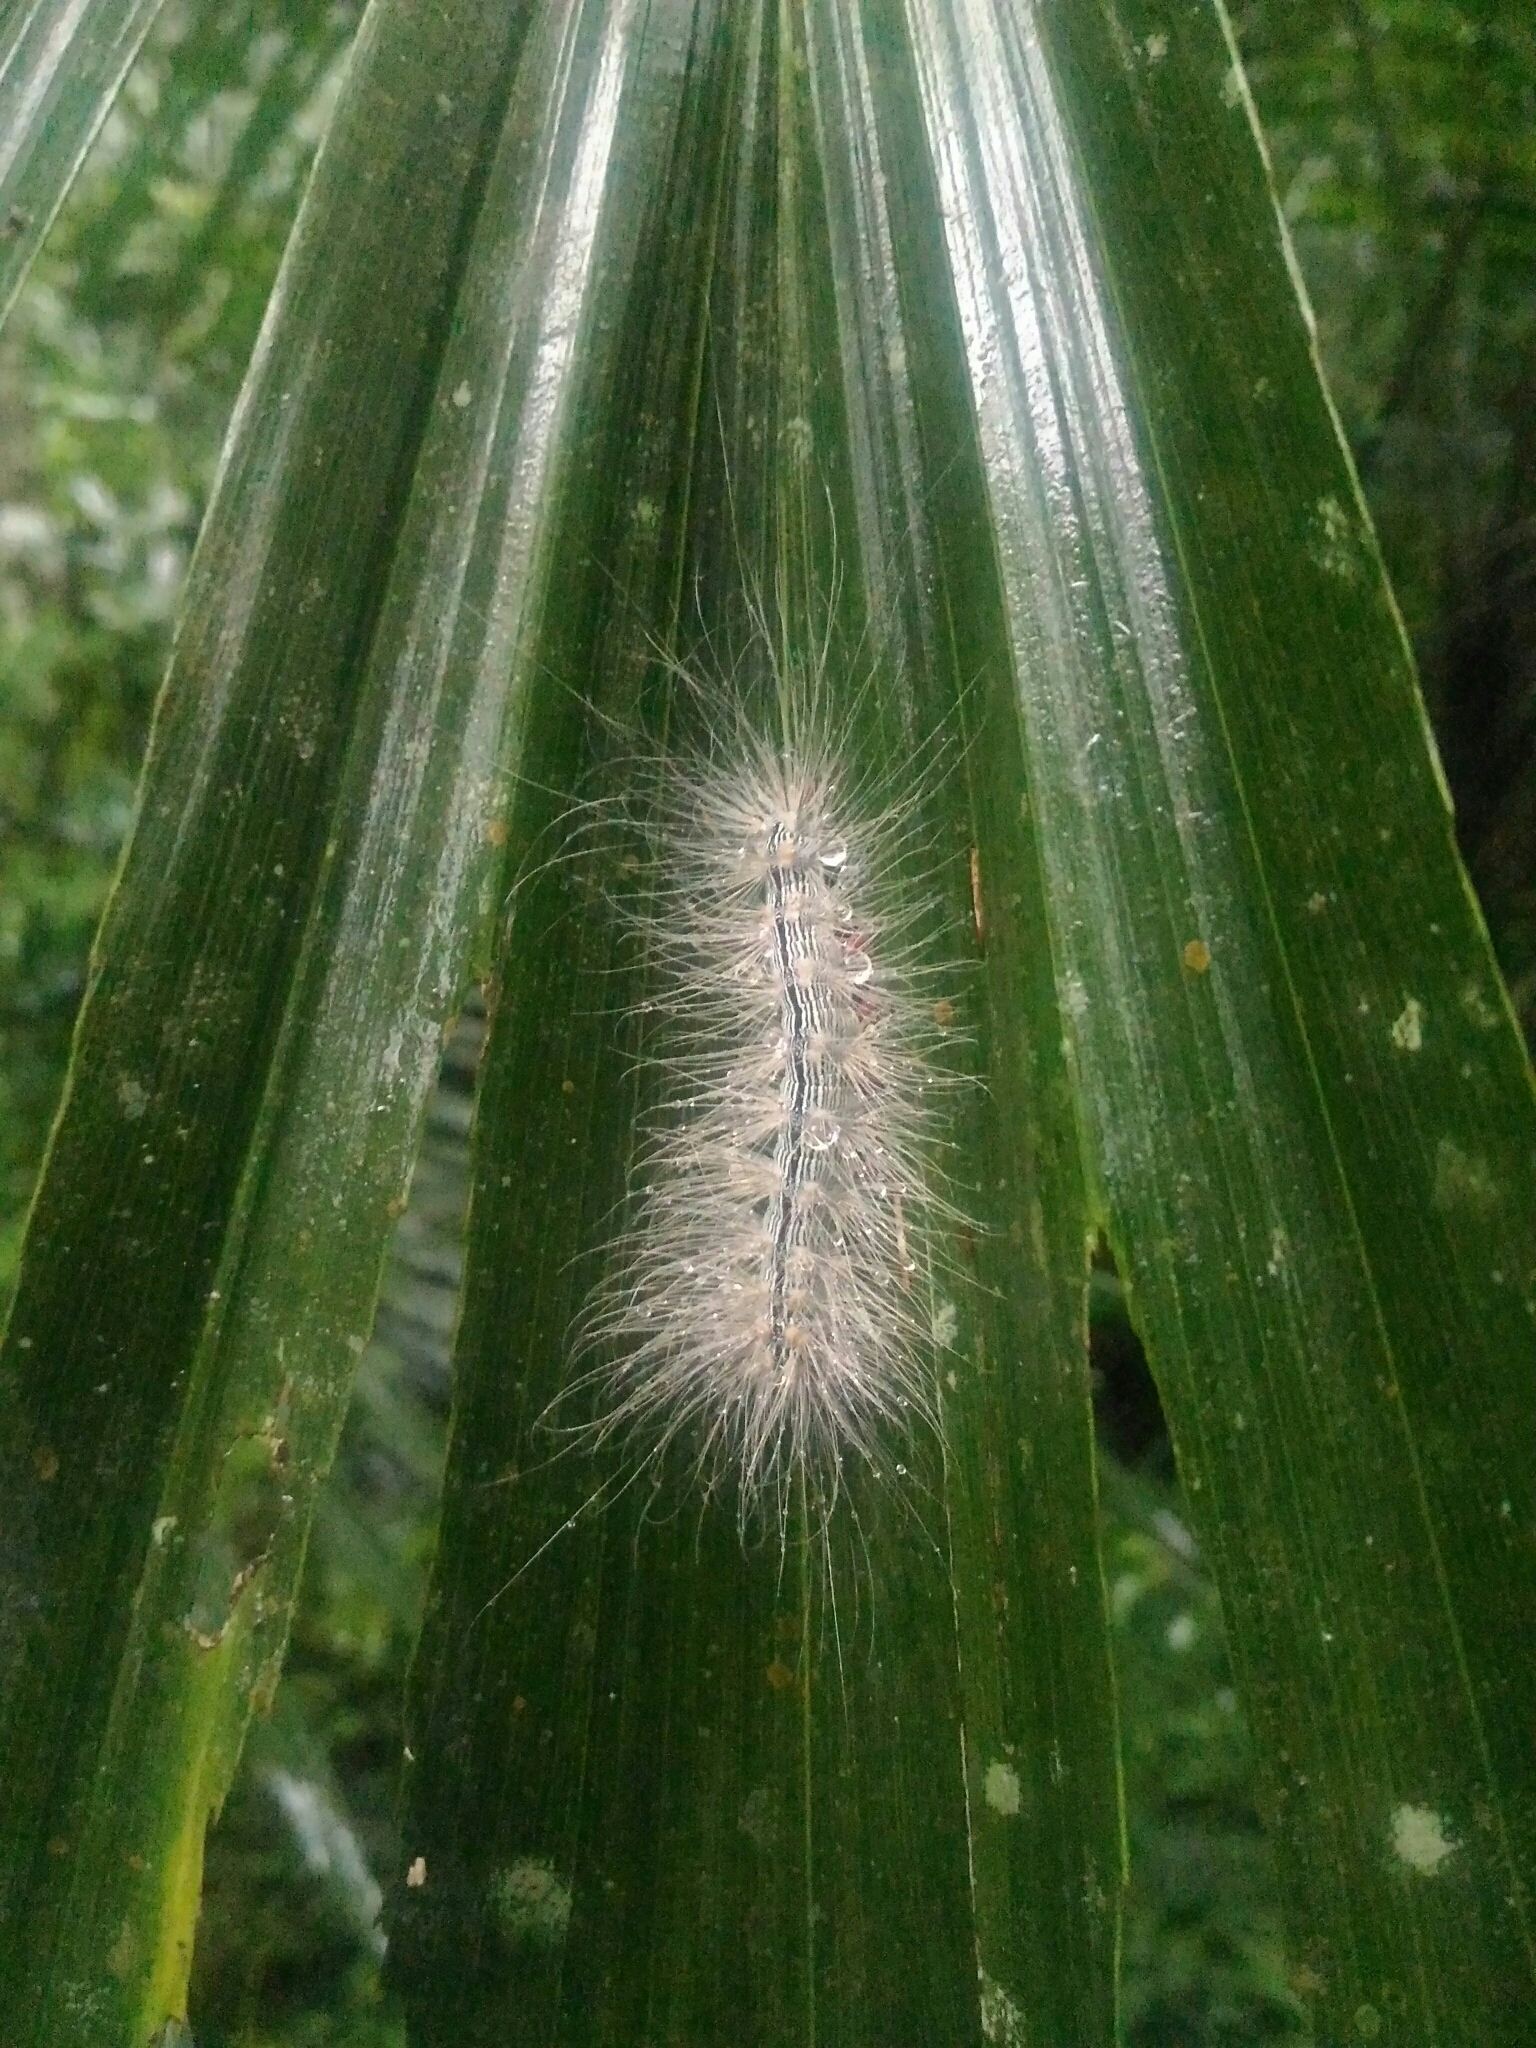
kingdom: Animalia
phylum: Arthropoda
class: Insecta
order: Lepidoptera
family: Erebidae
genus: Chrysaeglia
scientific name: Chrysaeglia magnifica
